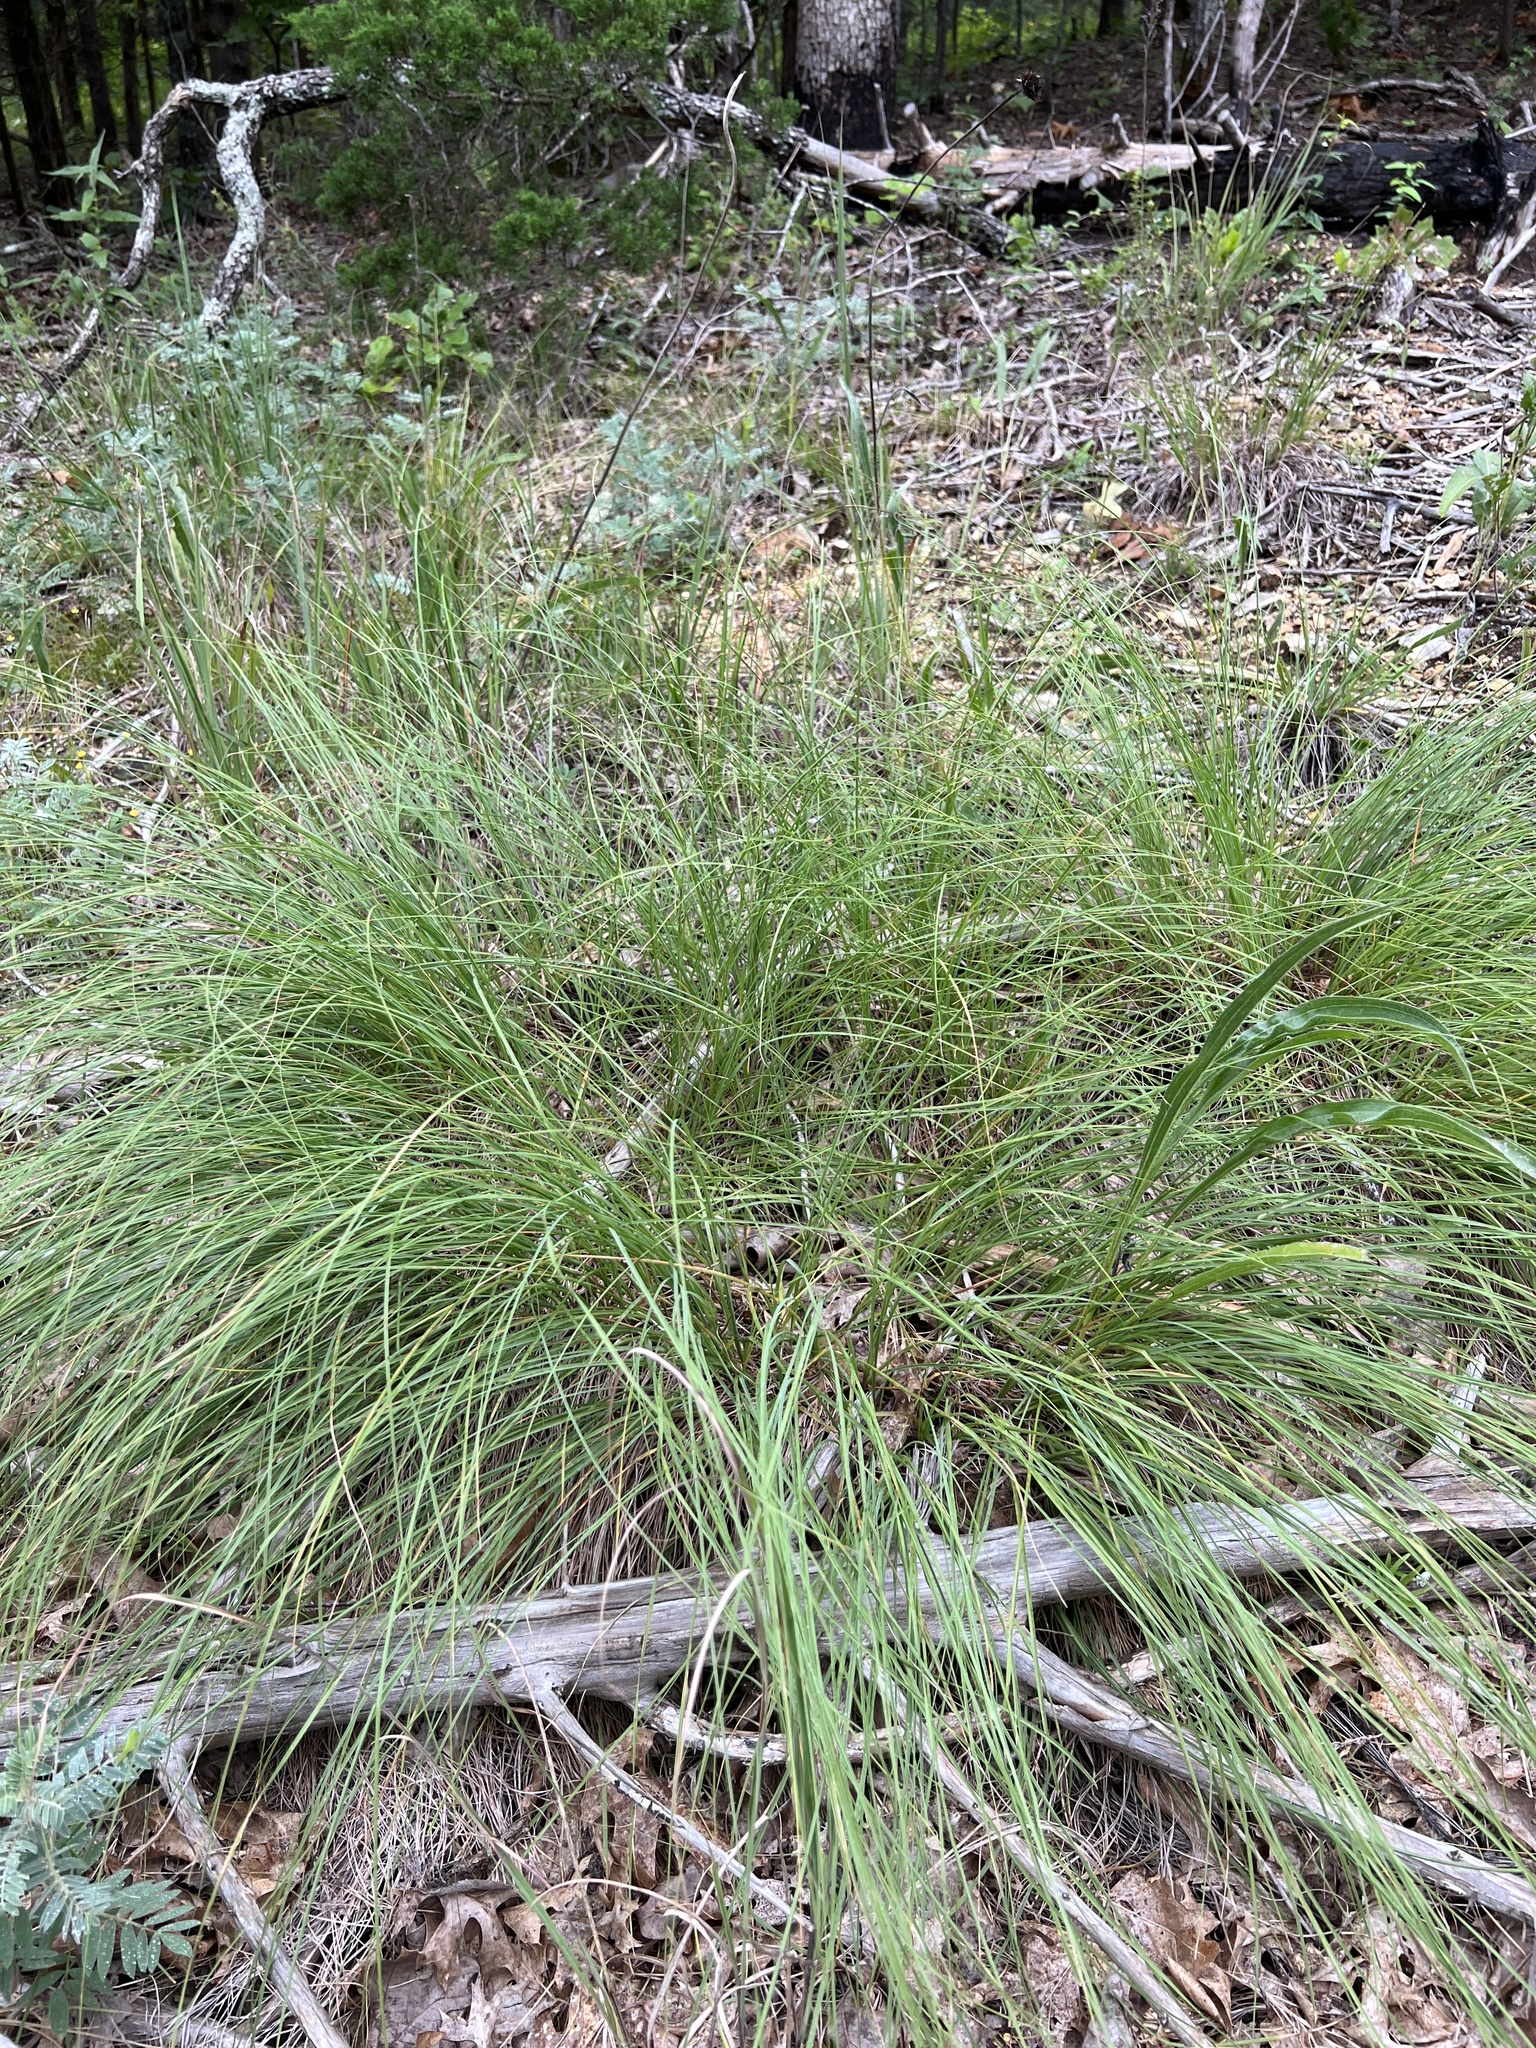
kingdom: Plantae
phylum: Tracheophyta
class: Liliopsida
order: Poales
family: Poaceae
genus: Sporobolus
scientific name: Sporobolus heterolepis
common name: Prairie dropseed
